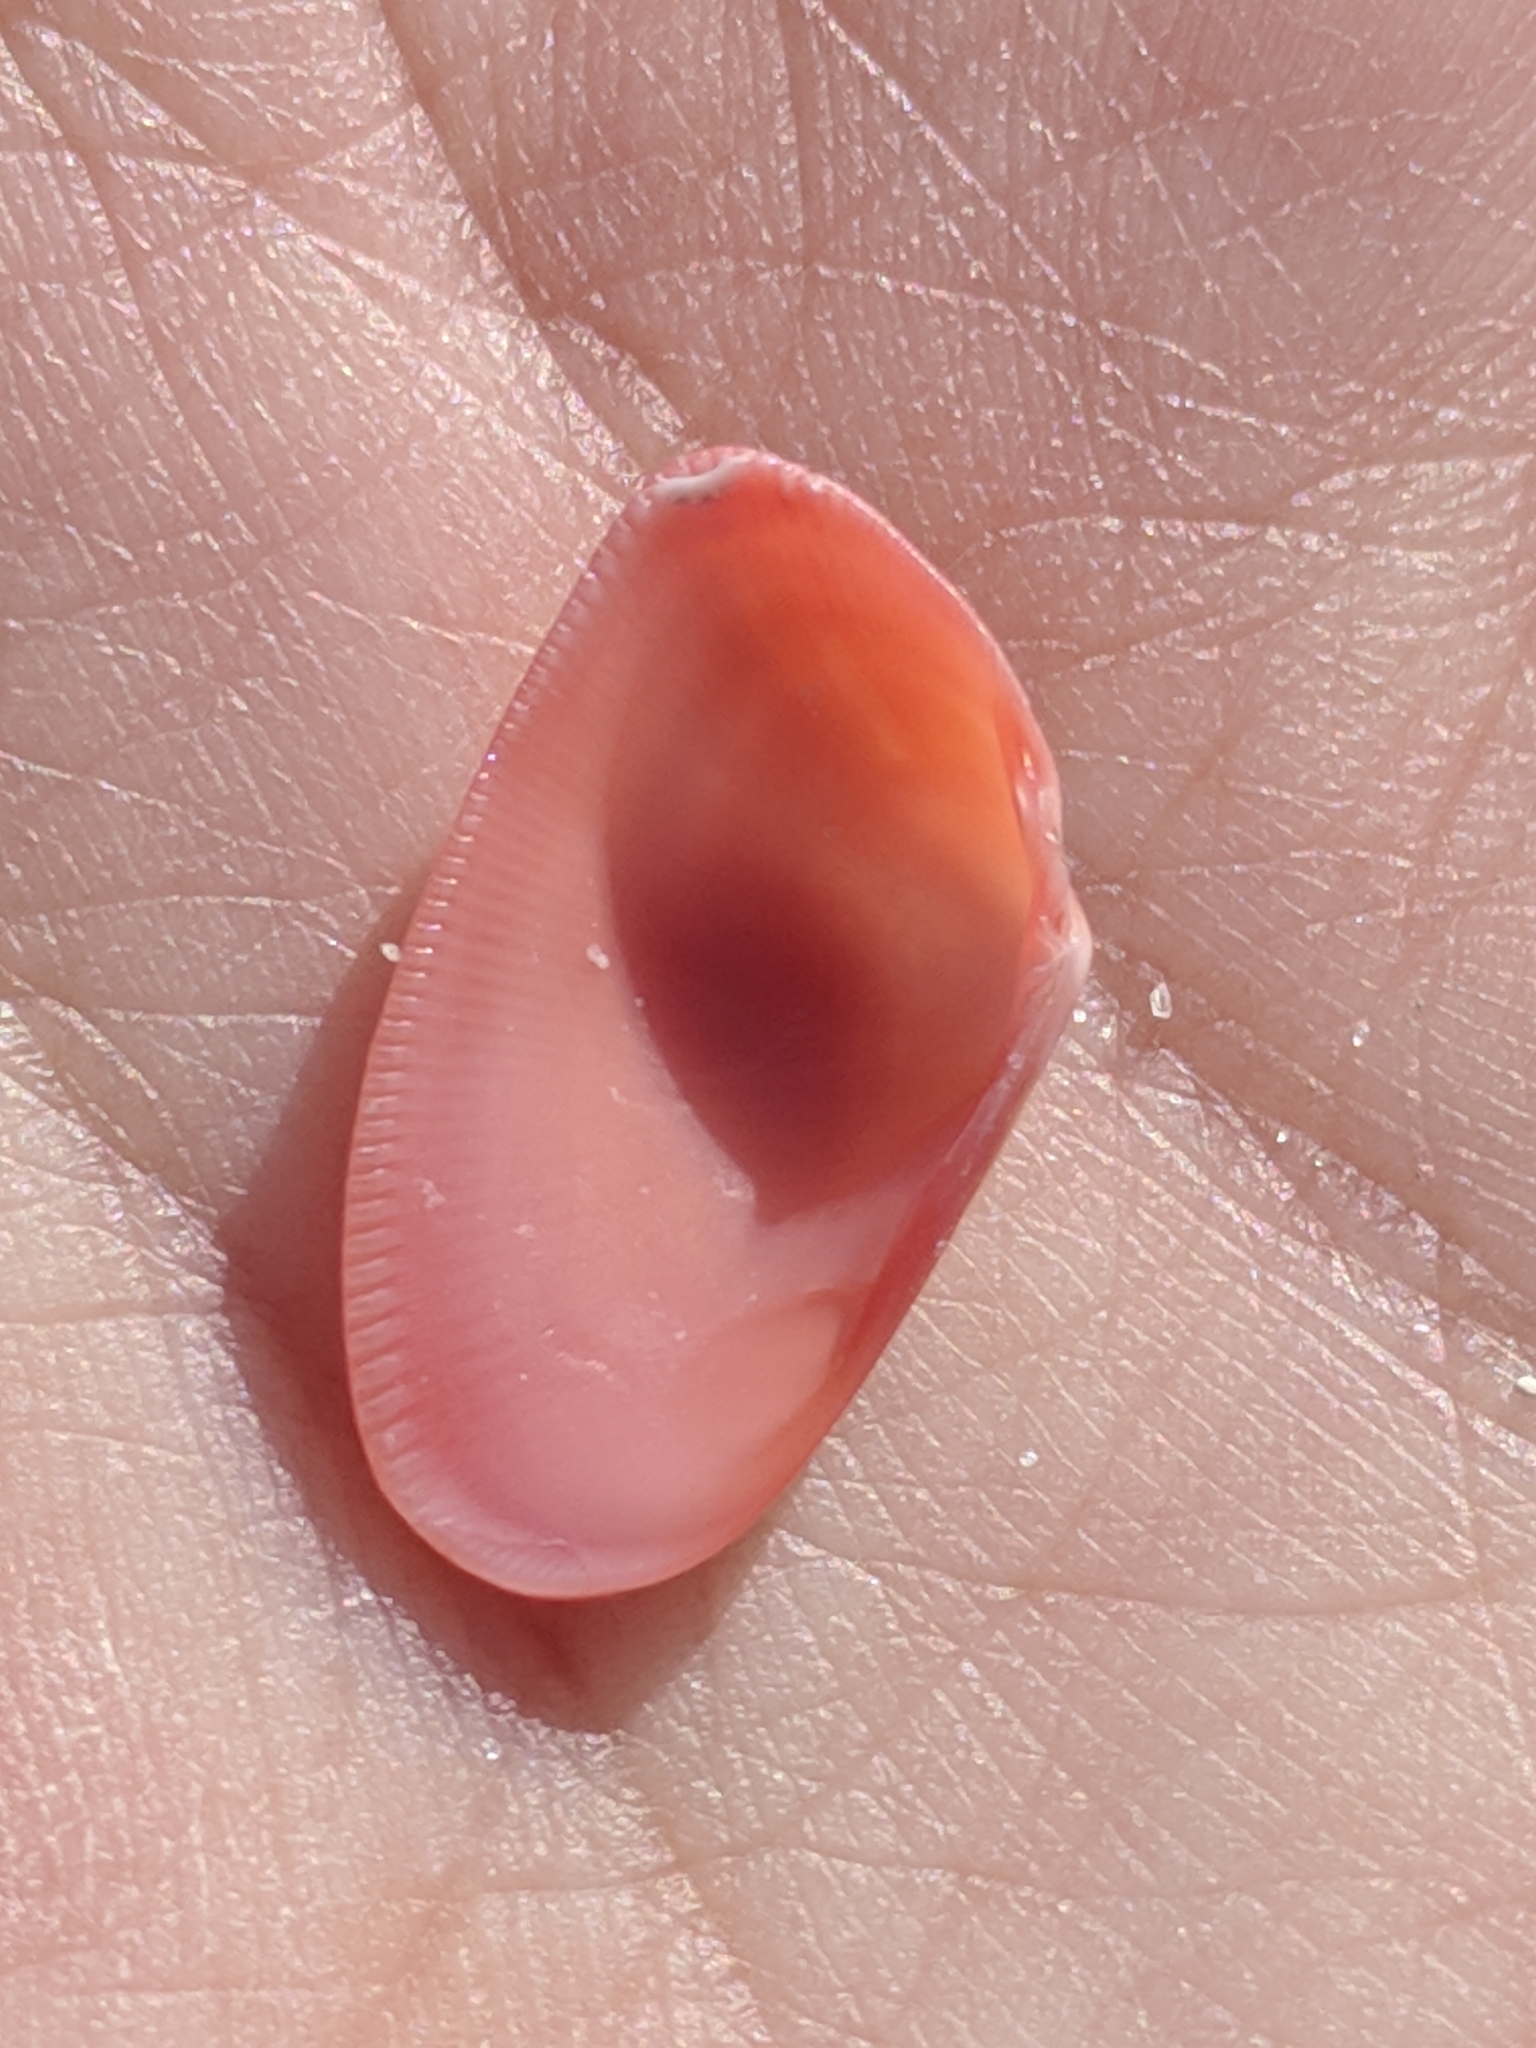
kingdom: Animalia
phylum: Mollusca
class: Bivalvia
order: Cardiida
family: Donacidae
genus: Donax
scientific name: Donax variabilis
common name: Butterfly shell
